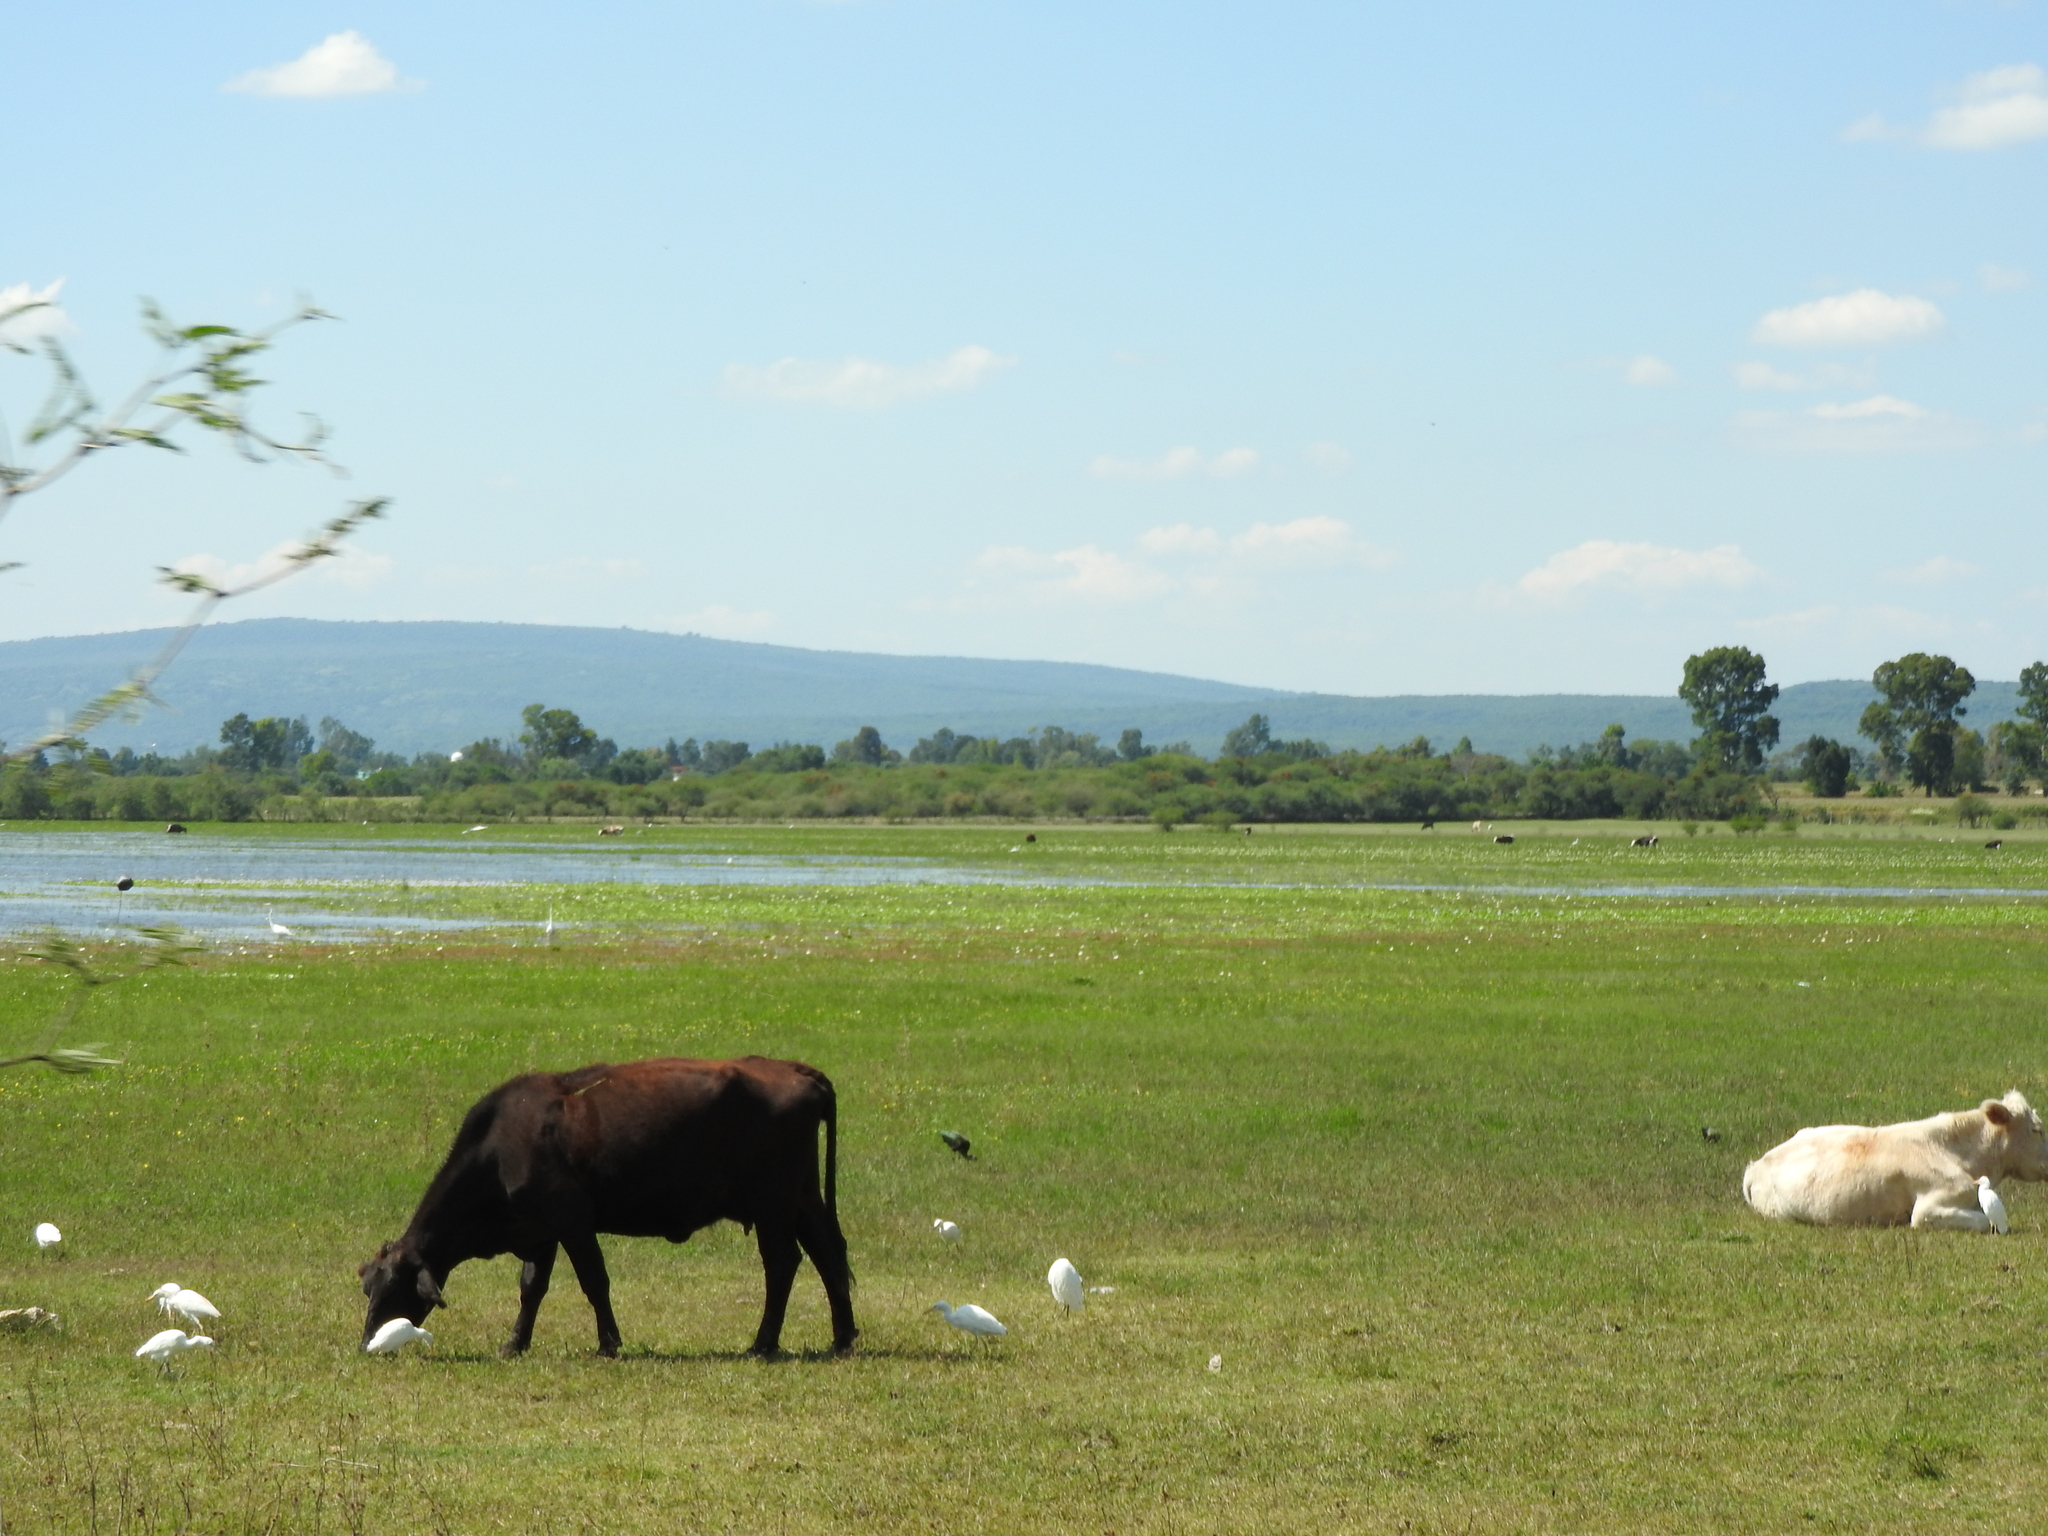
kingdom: Animalia
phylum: Chordata
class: Aves
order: Pelecaniformes
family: Ardeidae
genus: Bubulcus
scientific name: Bubulcus ibis
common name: Cattle egret
